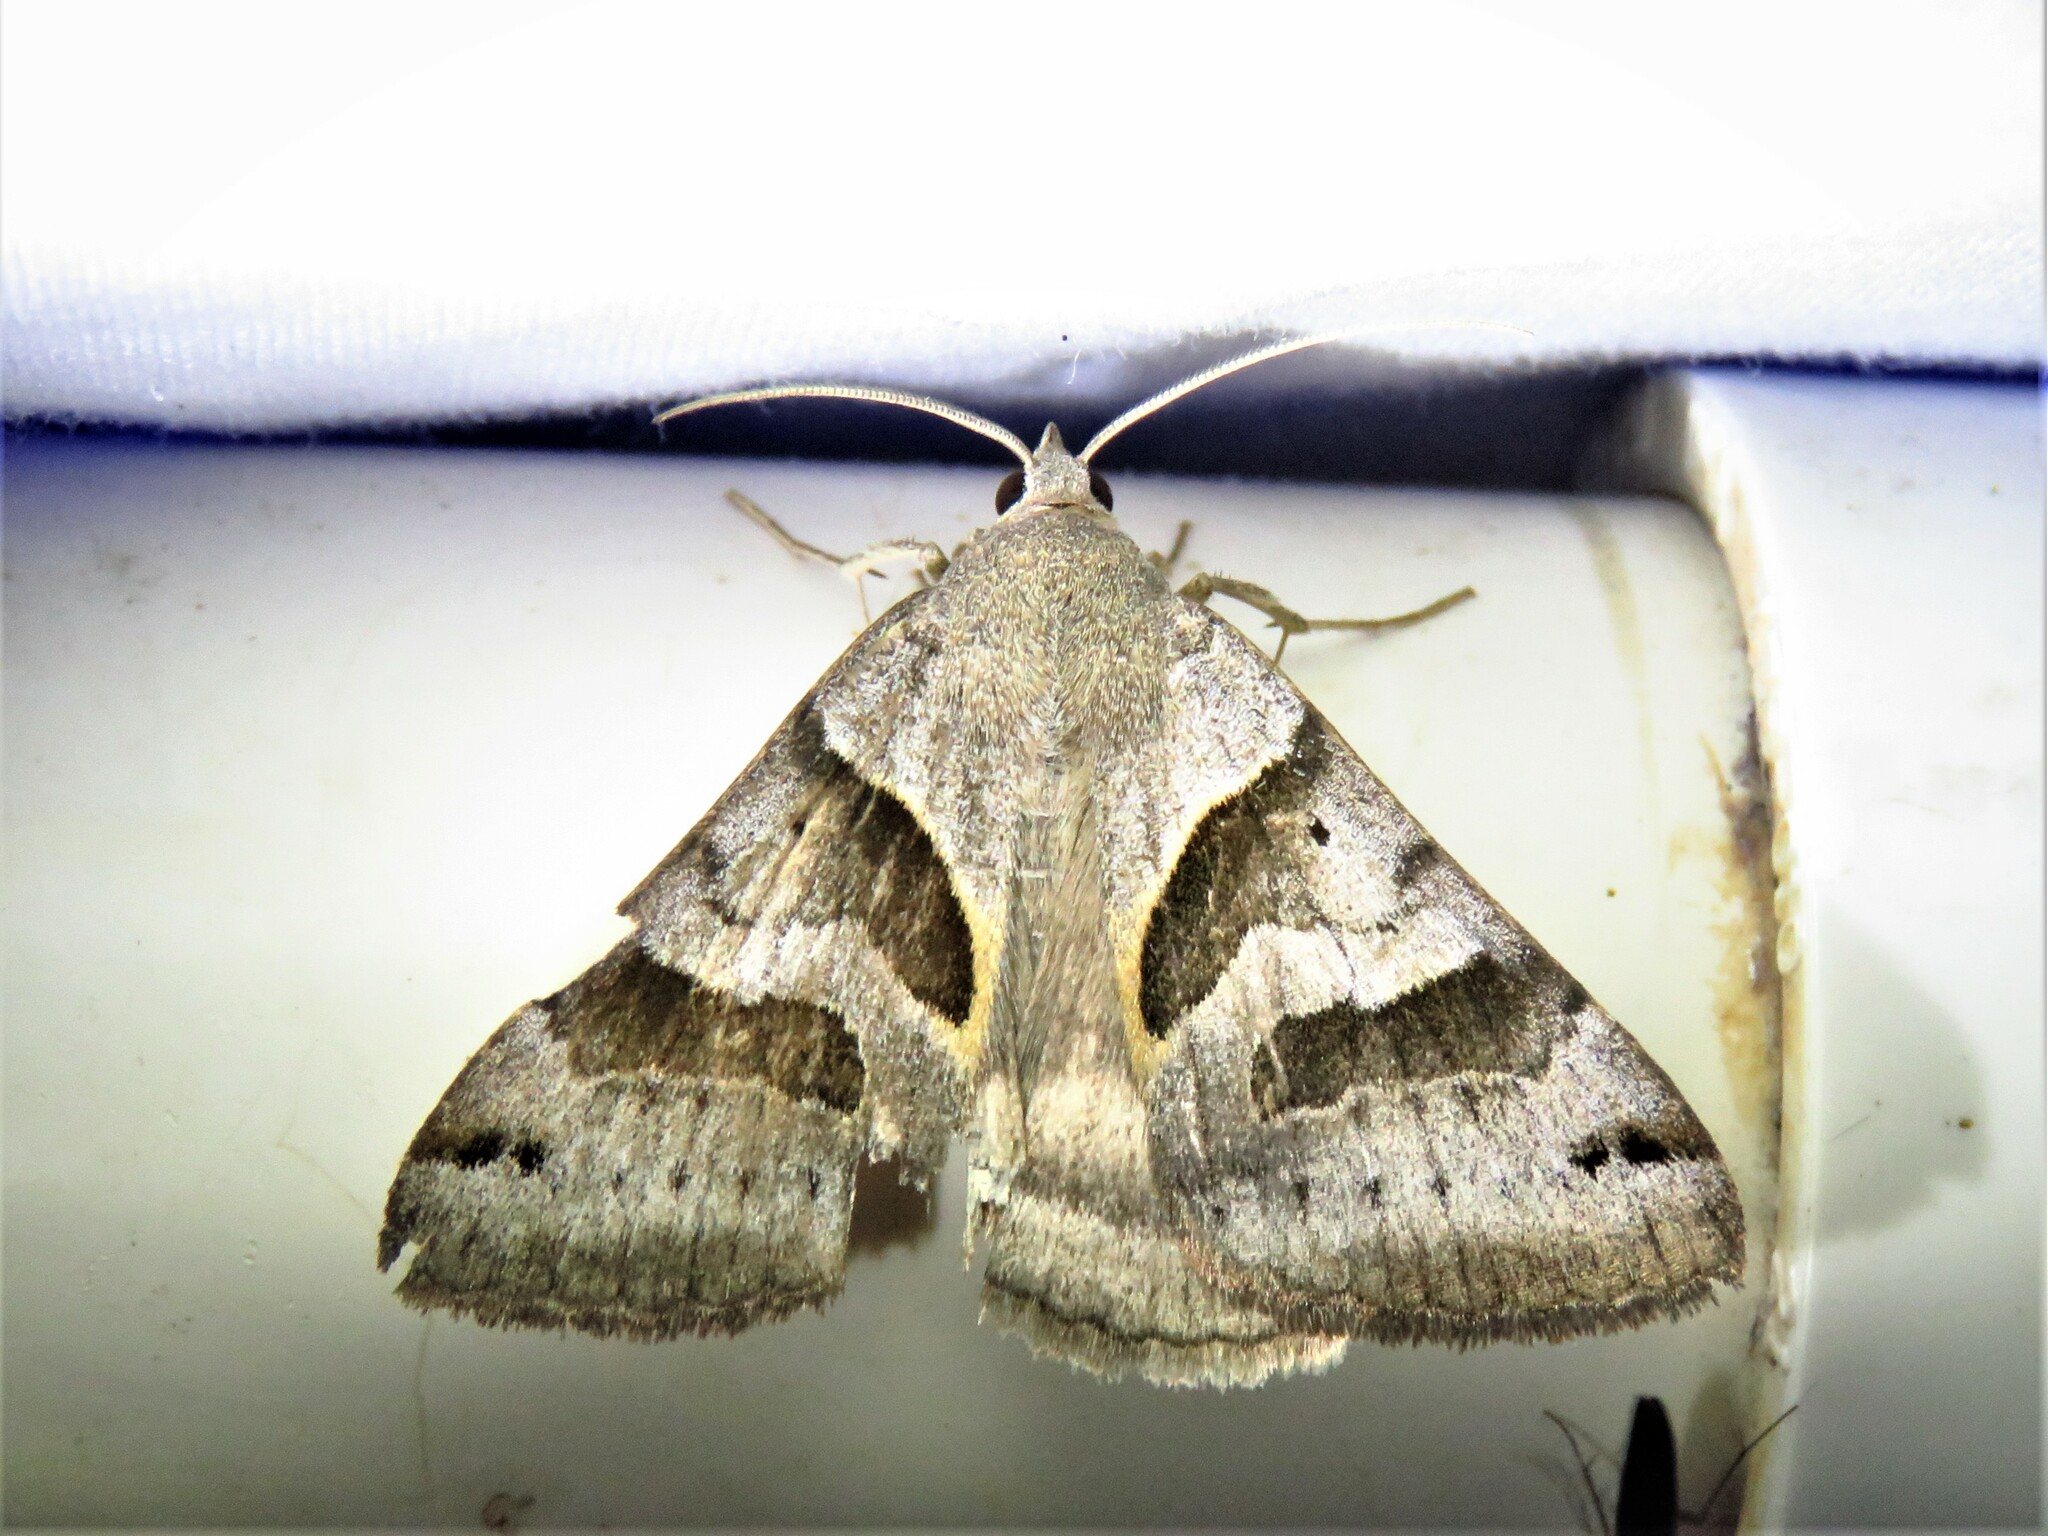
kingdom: Animalia
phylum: Arthropoda
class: Insecta
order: Lepidoptera
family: Erebidae
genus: Caenurgina
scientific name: Caenurgina erechtea
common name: Forage looper moth
